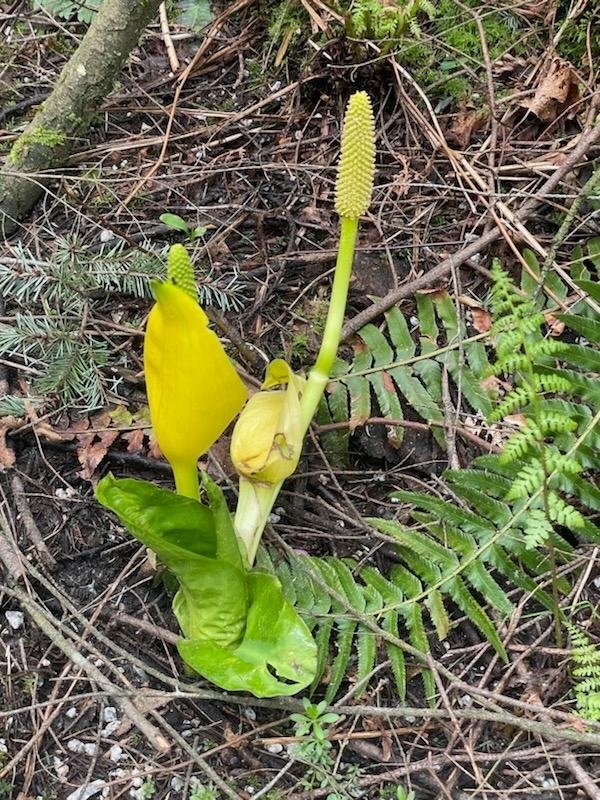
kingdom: Plantae
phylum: Tracheophyta
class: Liliopsida
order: Alismatales
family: Araceae
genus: Lysichiton
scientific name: Lysichiton americanus
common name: American skunk cabbage
